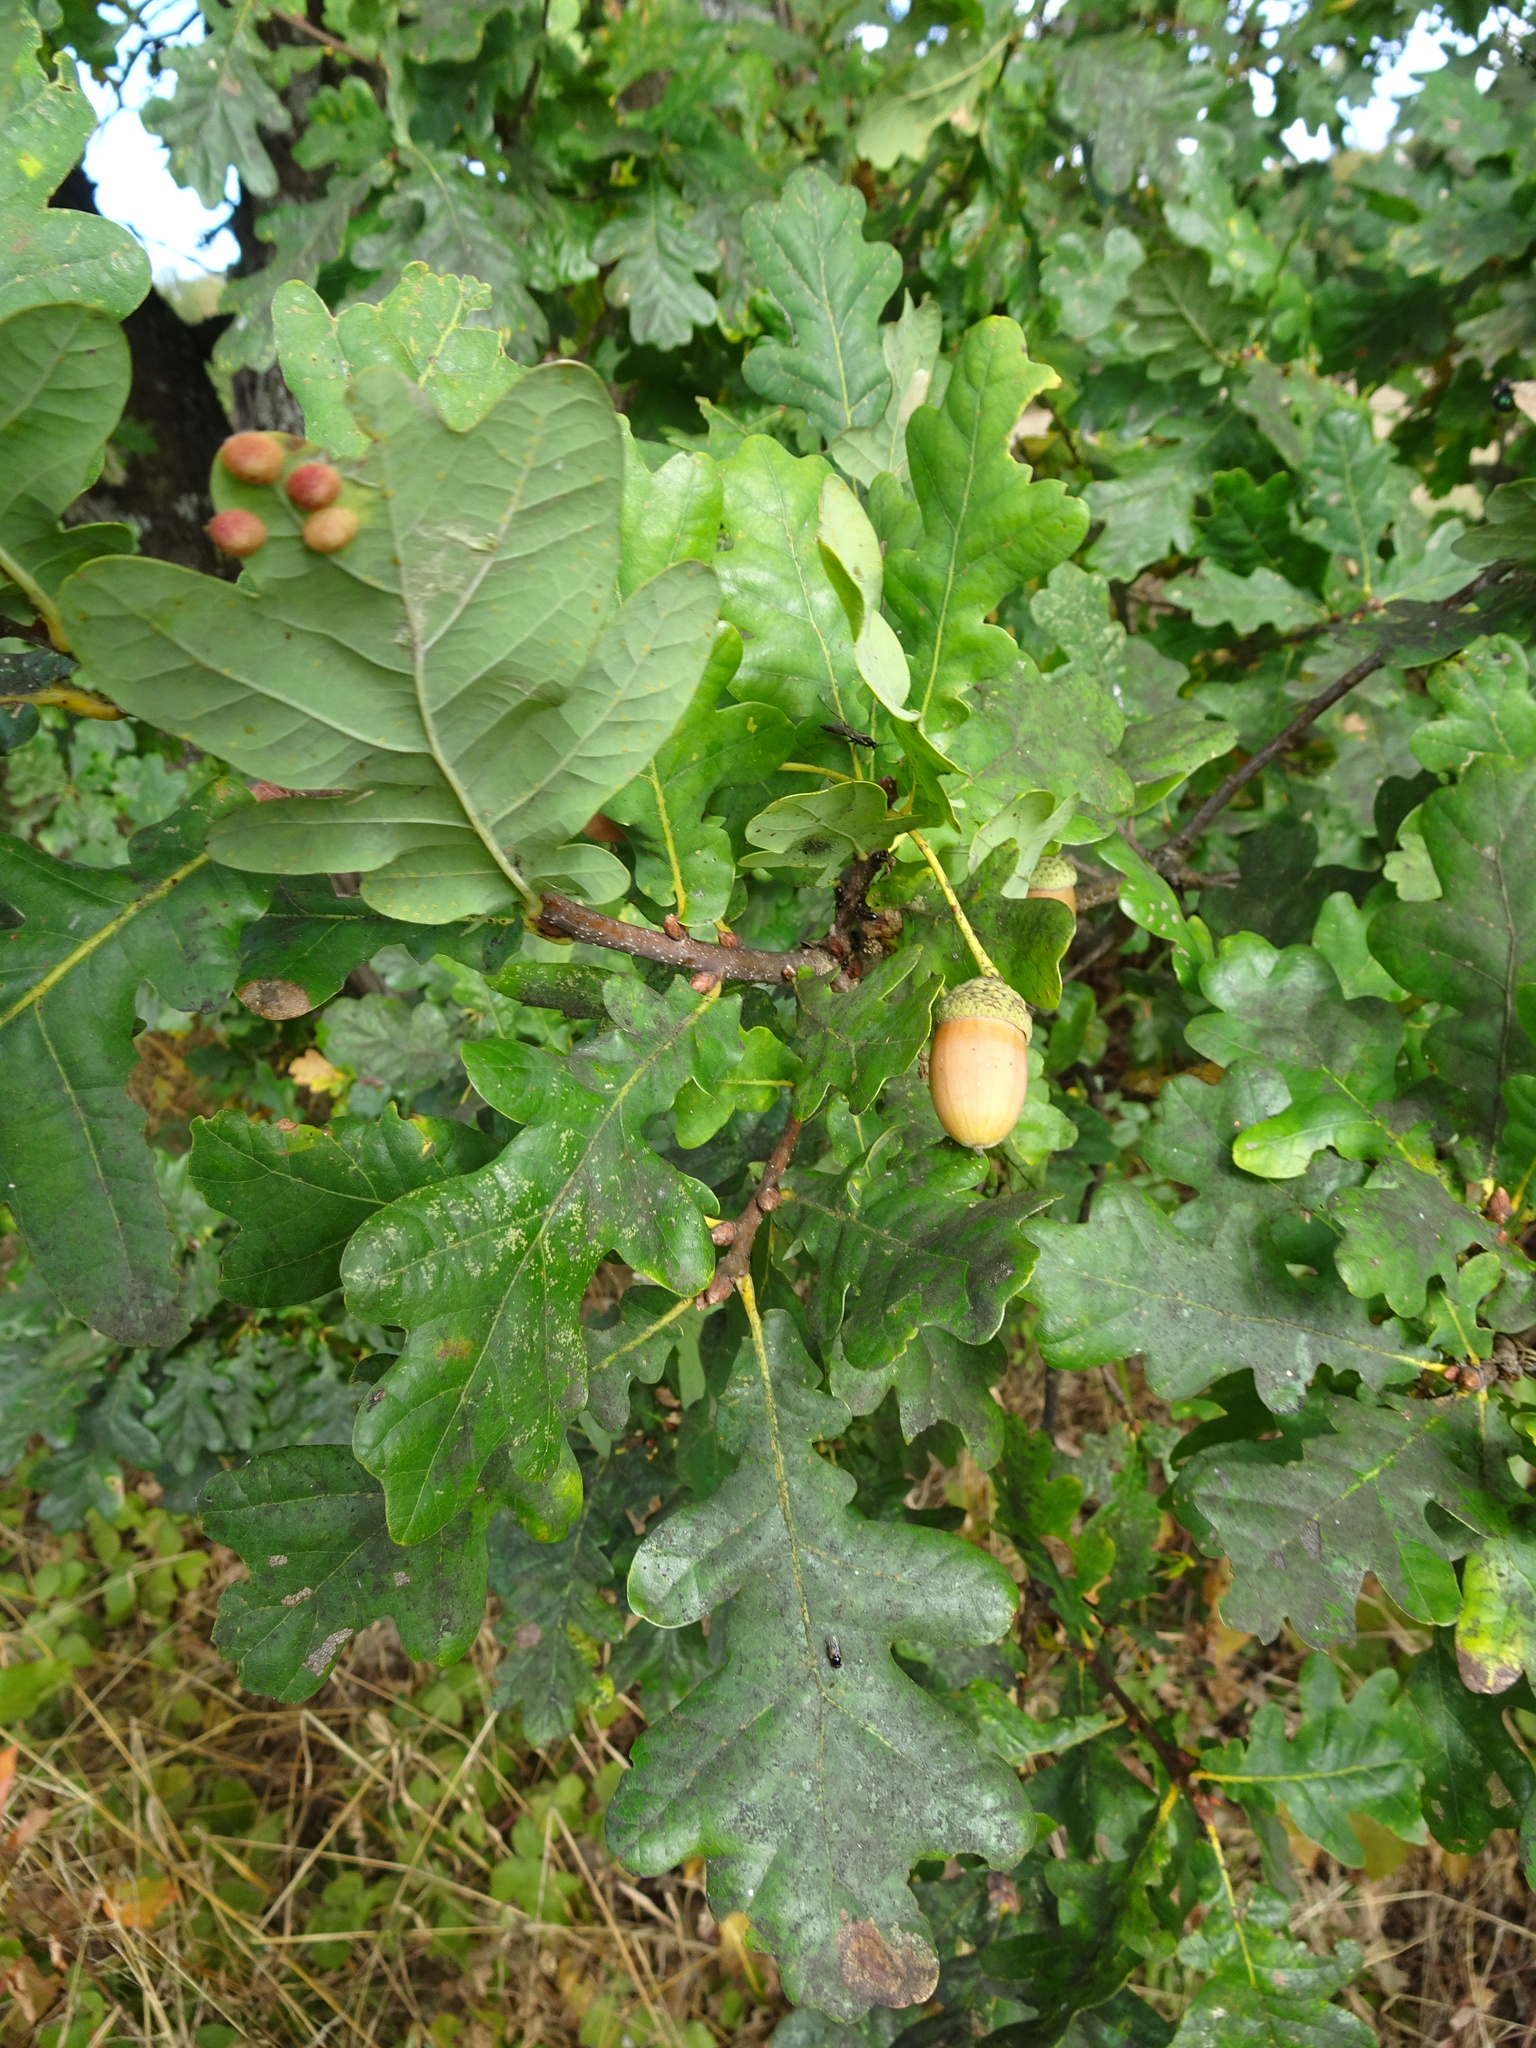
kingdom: Plantae
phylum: Tracheophyta
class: Magnoliopsida
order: Fagales
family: Fagaceae
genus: Quercus
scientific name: Quercus robur
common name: Pedunculate oak
